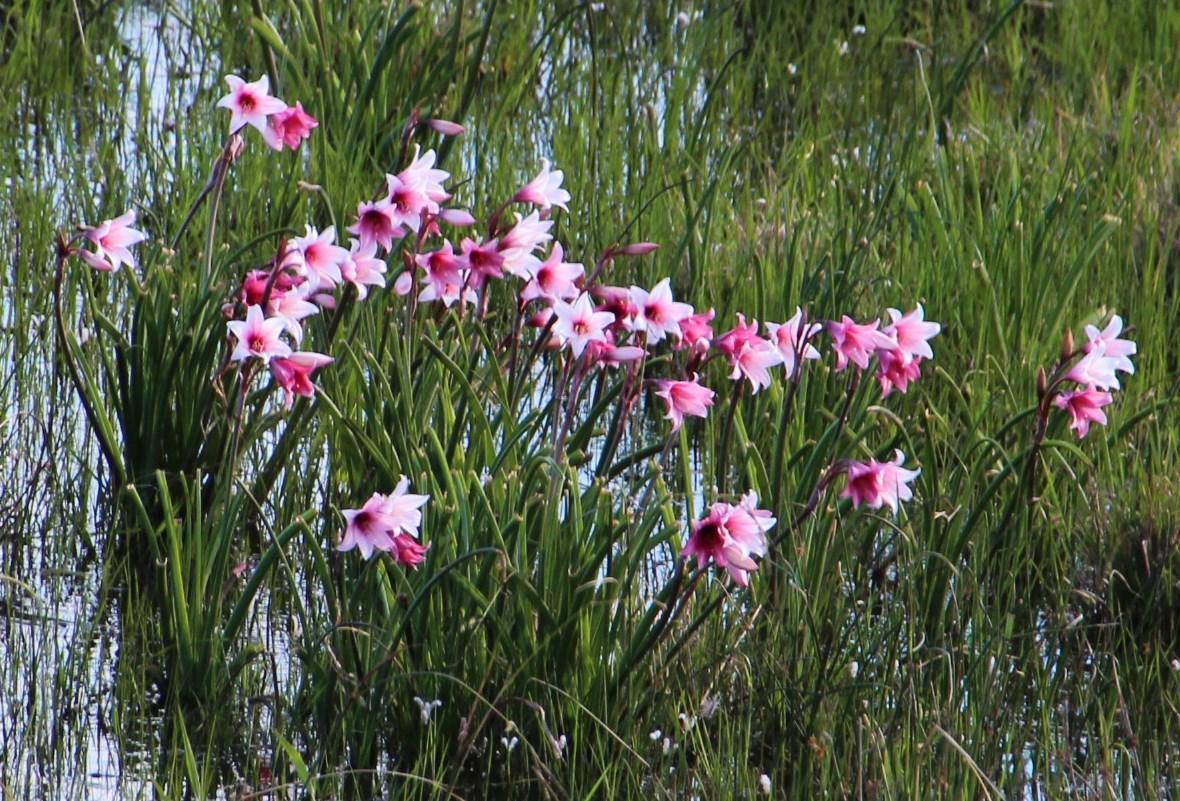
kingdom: Plantae
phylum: Tracheophyta
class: Liliopsida
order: Asparagales
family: Amaryllidaceae
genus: Crinum
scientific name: Crinum campanulatum
